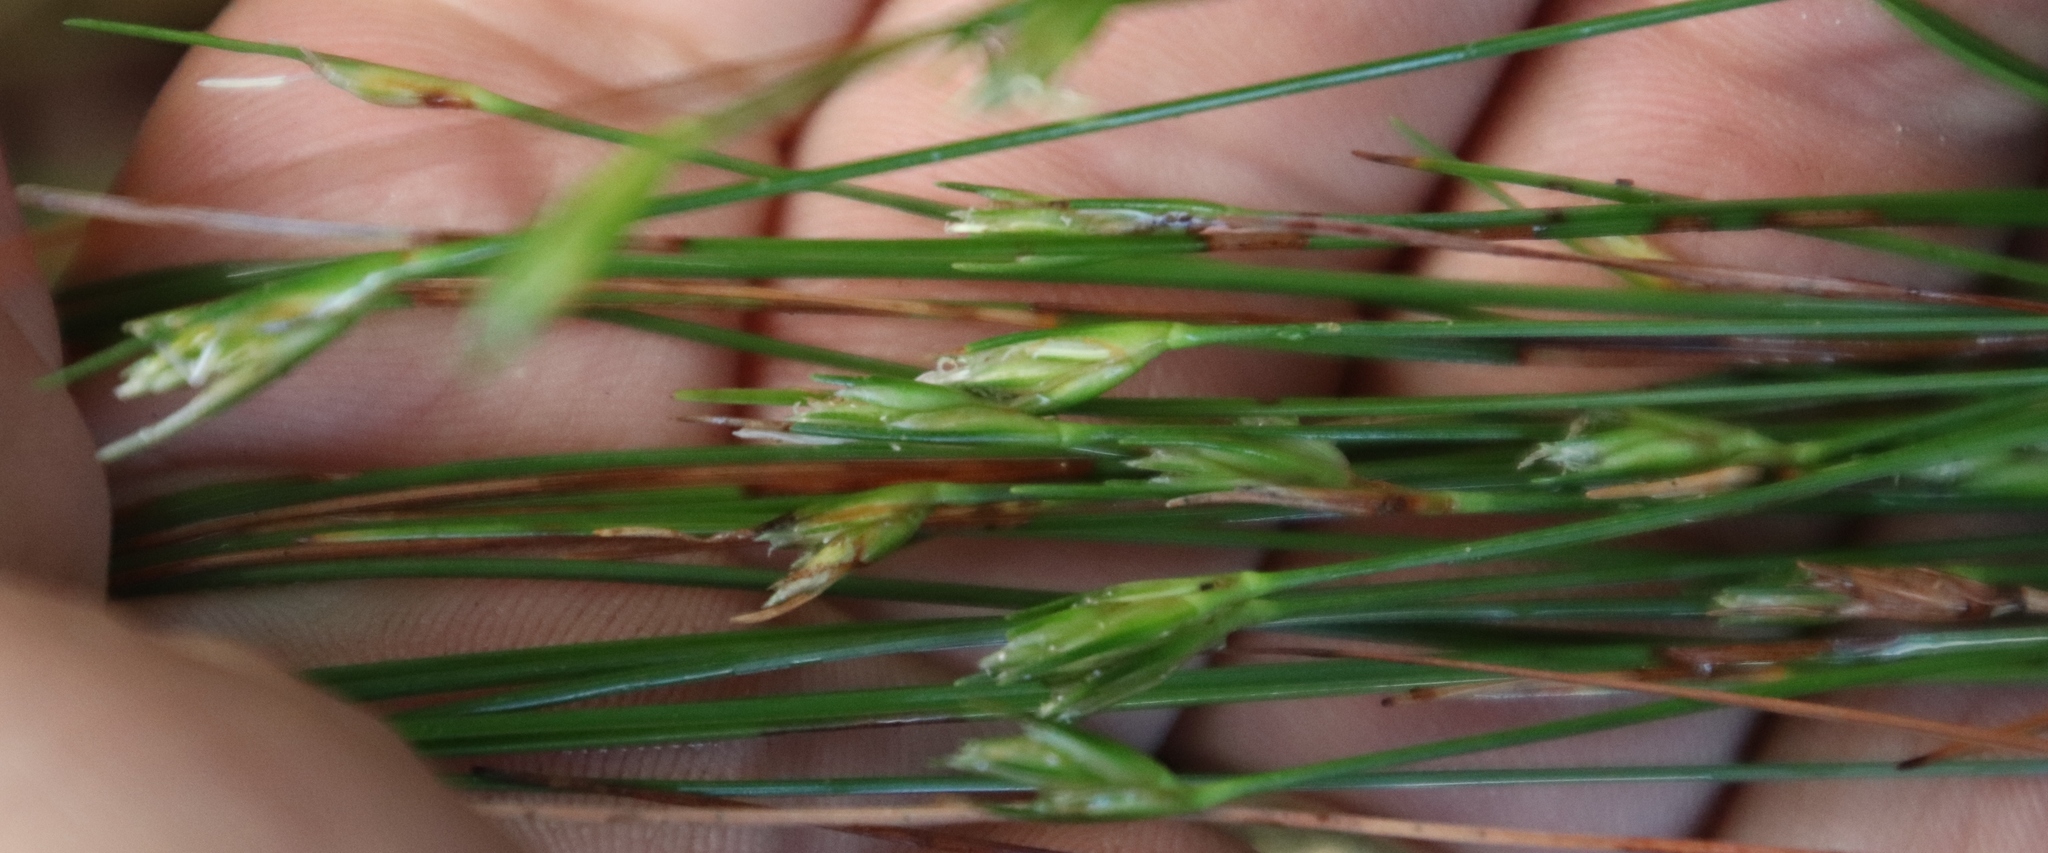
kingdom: Plantae
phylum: Tracheophyta
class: Liliopsida
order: Poales
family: Cyperaceae
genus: Ficinia
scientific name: Ficinia fastigiata
